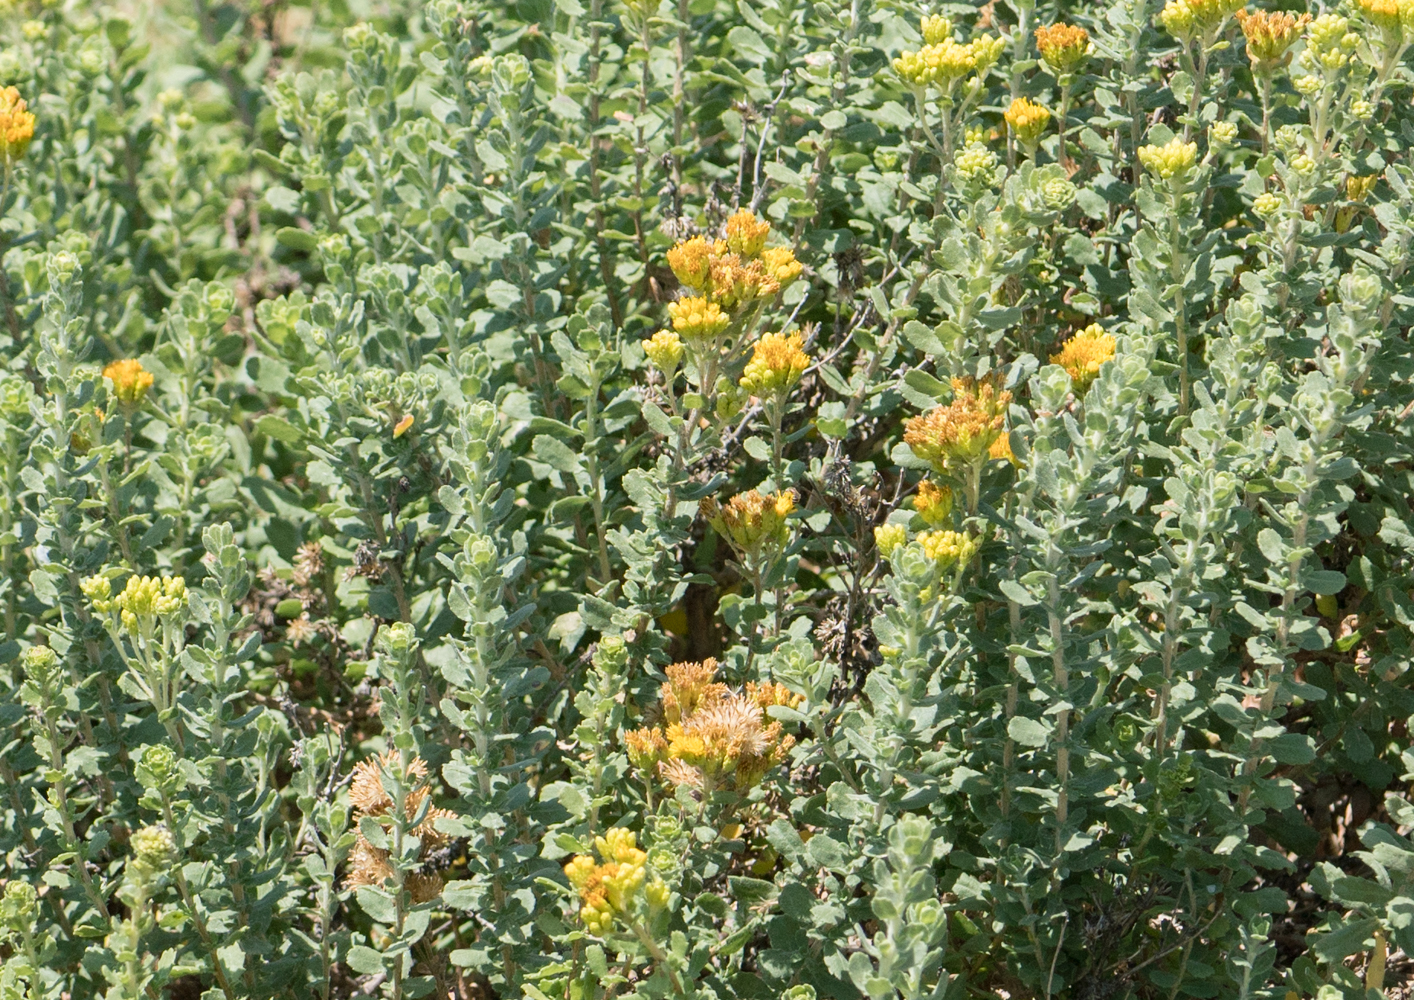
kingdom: Plantae
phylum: Tracheophyta
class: Magnoliopsida
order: Asterales
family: Asteraceae
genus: Isocoma
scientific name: Isocoma menziesii
